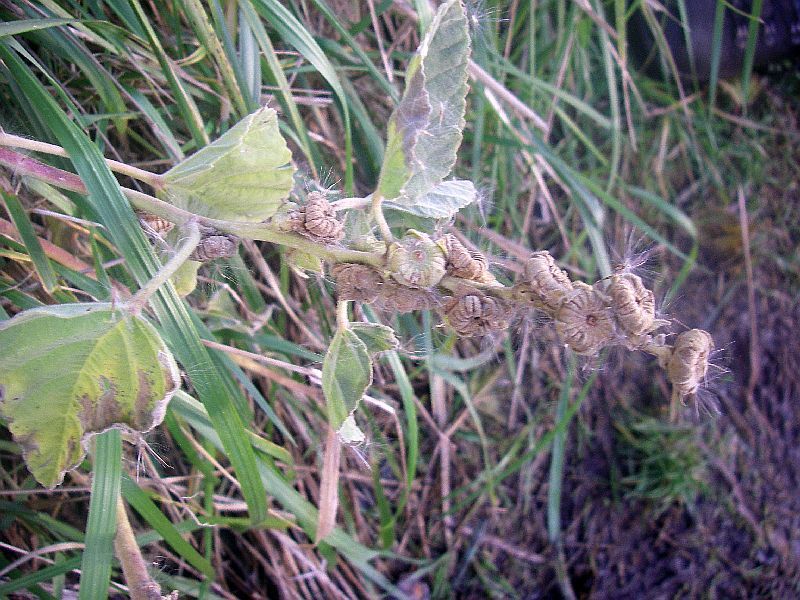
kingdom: Plantae
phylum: Tracheophyta
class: Magnoliopsida
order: Malvales
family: Malvaceae
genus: Althaea
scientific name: Althaea officinalis
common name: Marsh-mallow
